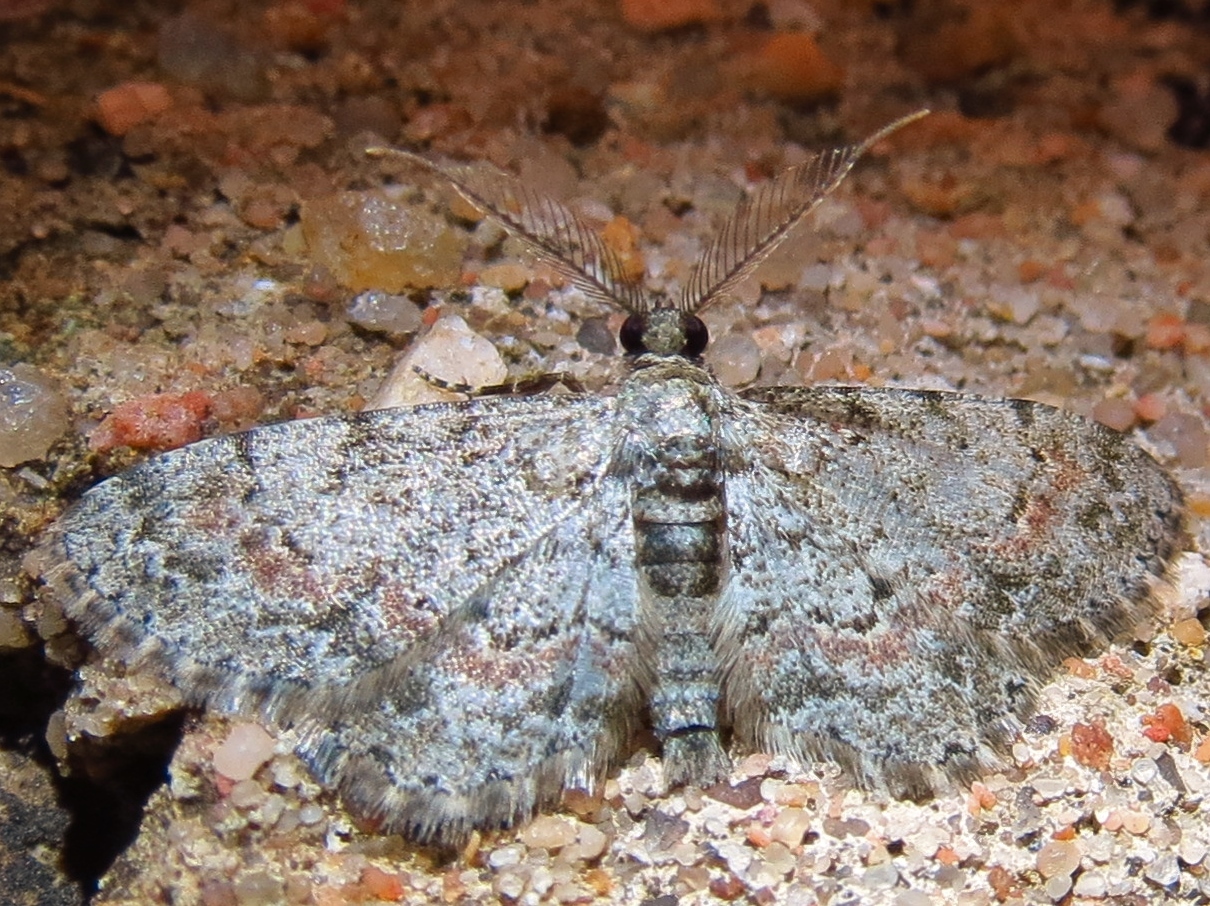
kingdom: Animalia
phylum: Arthropoda
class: Insecta
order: Lepidoptera
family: Geometridae
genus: Glenoides
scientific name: Glenoides texanaria
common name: Texas gray
